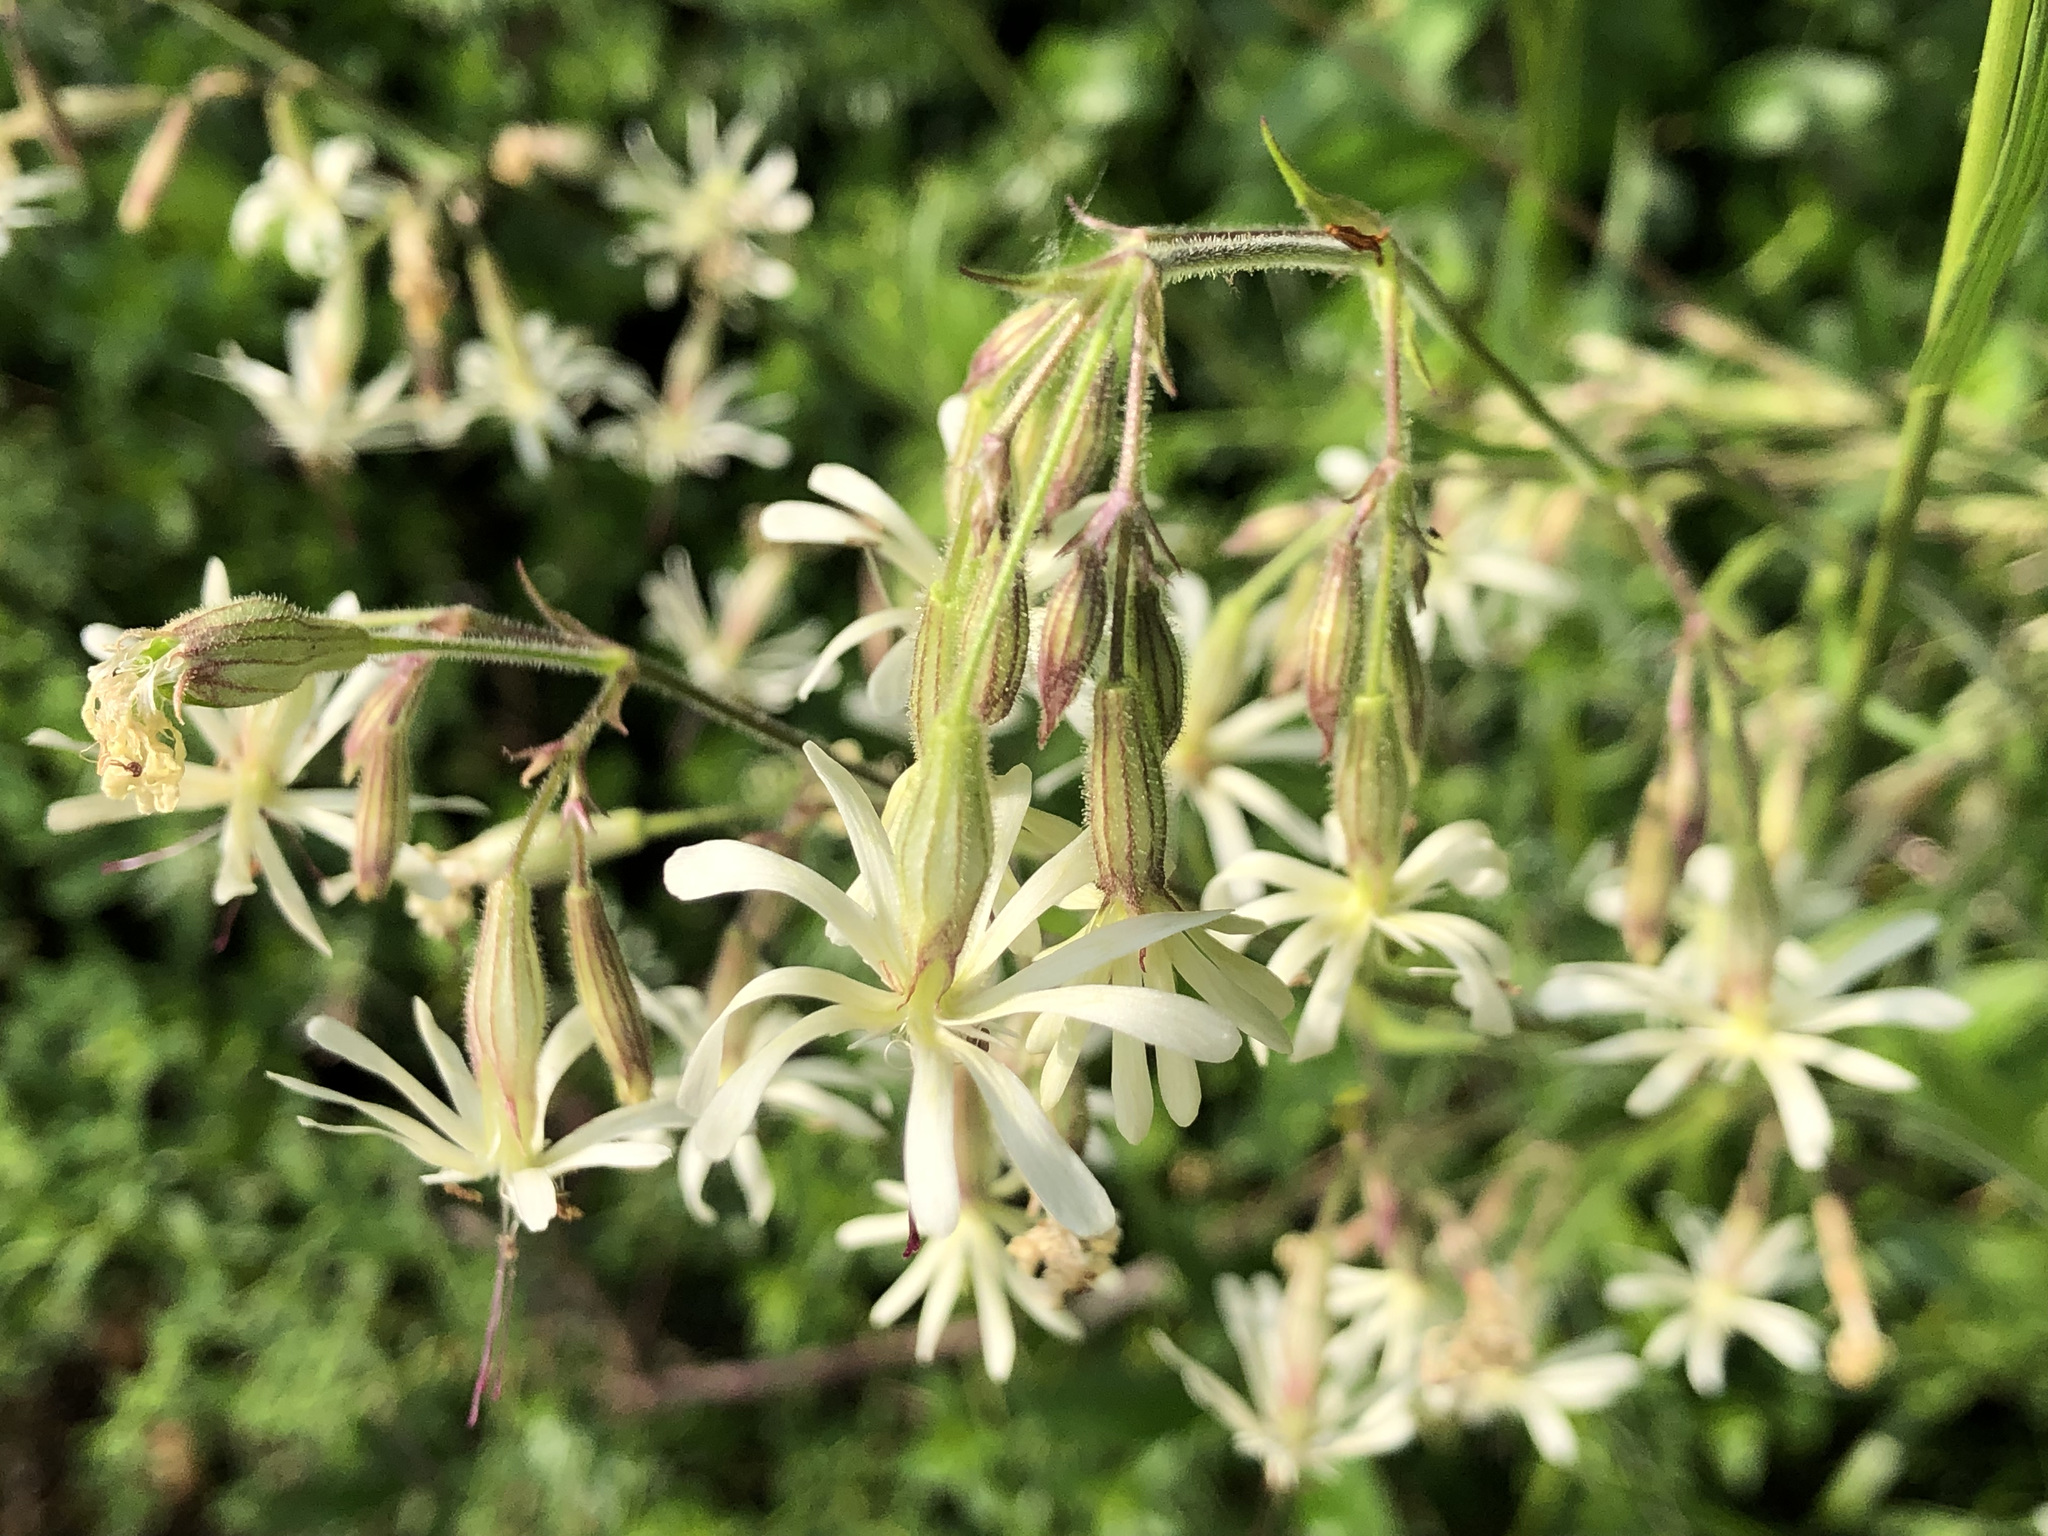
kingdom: Plantae
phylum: Tracheophyta
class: Magnoliopsida
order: Caryophyllales
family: Caryophyllaceae
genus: Silene
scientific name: Silene nutans
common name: Nottingham catchfly
